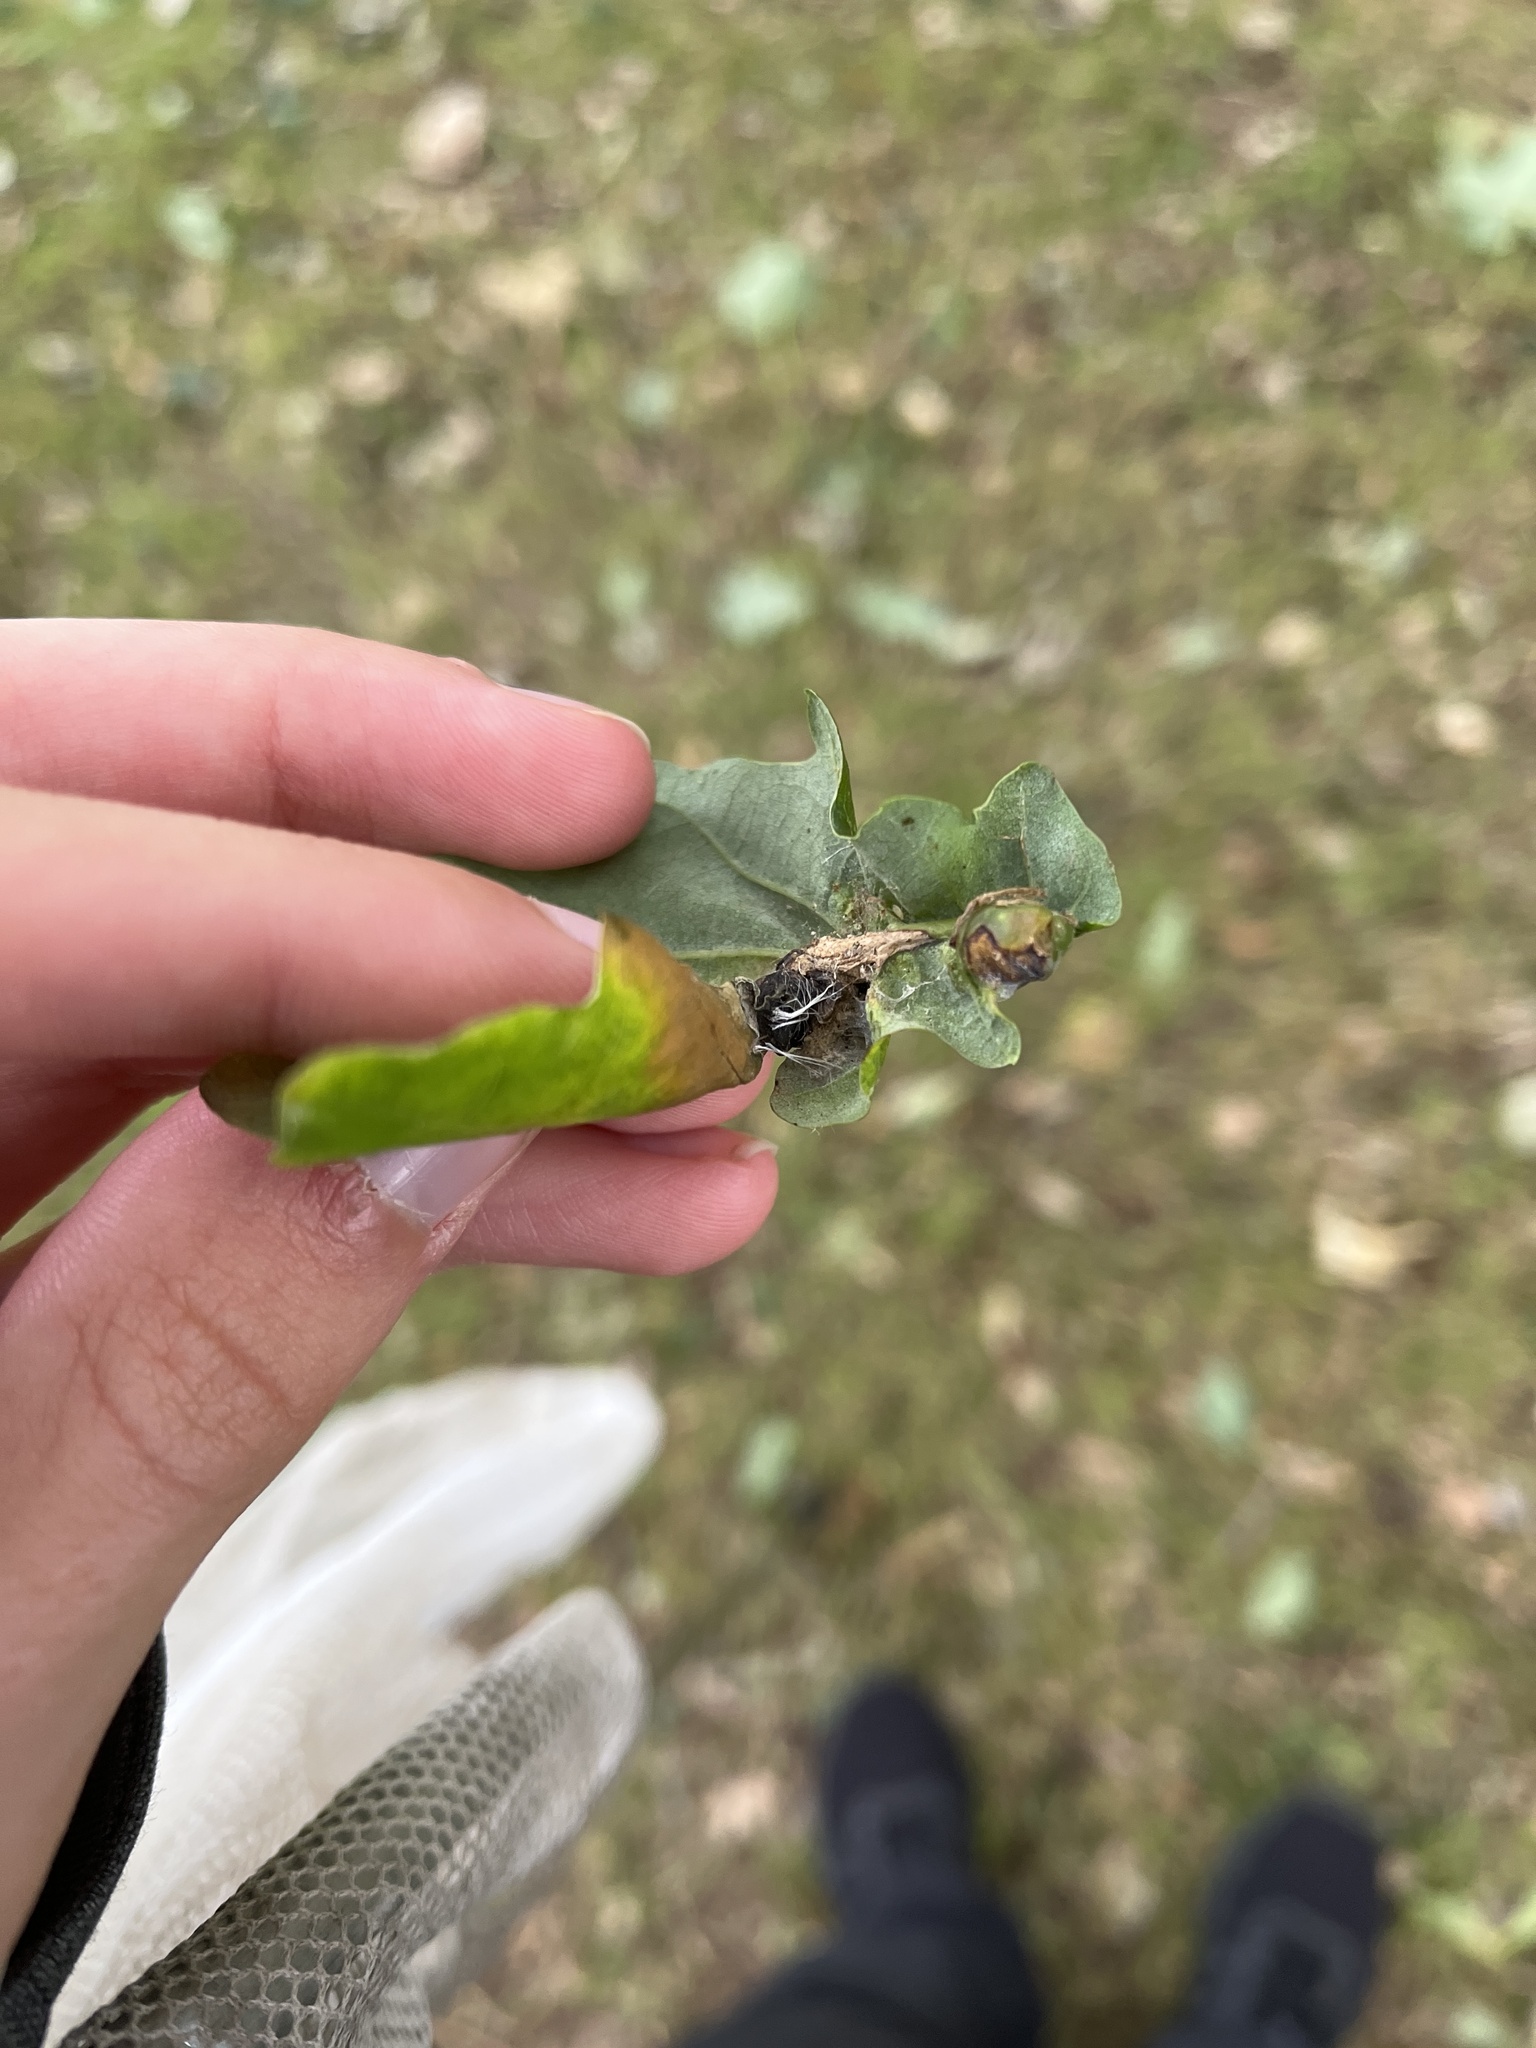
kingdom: Animalia
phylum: Arthropoda
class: Insecta
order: Hymenoptera
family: Cynipidae
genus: Andricus
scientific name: Andricus curvator
